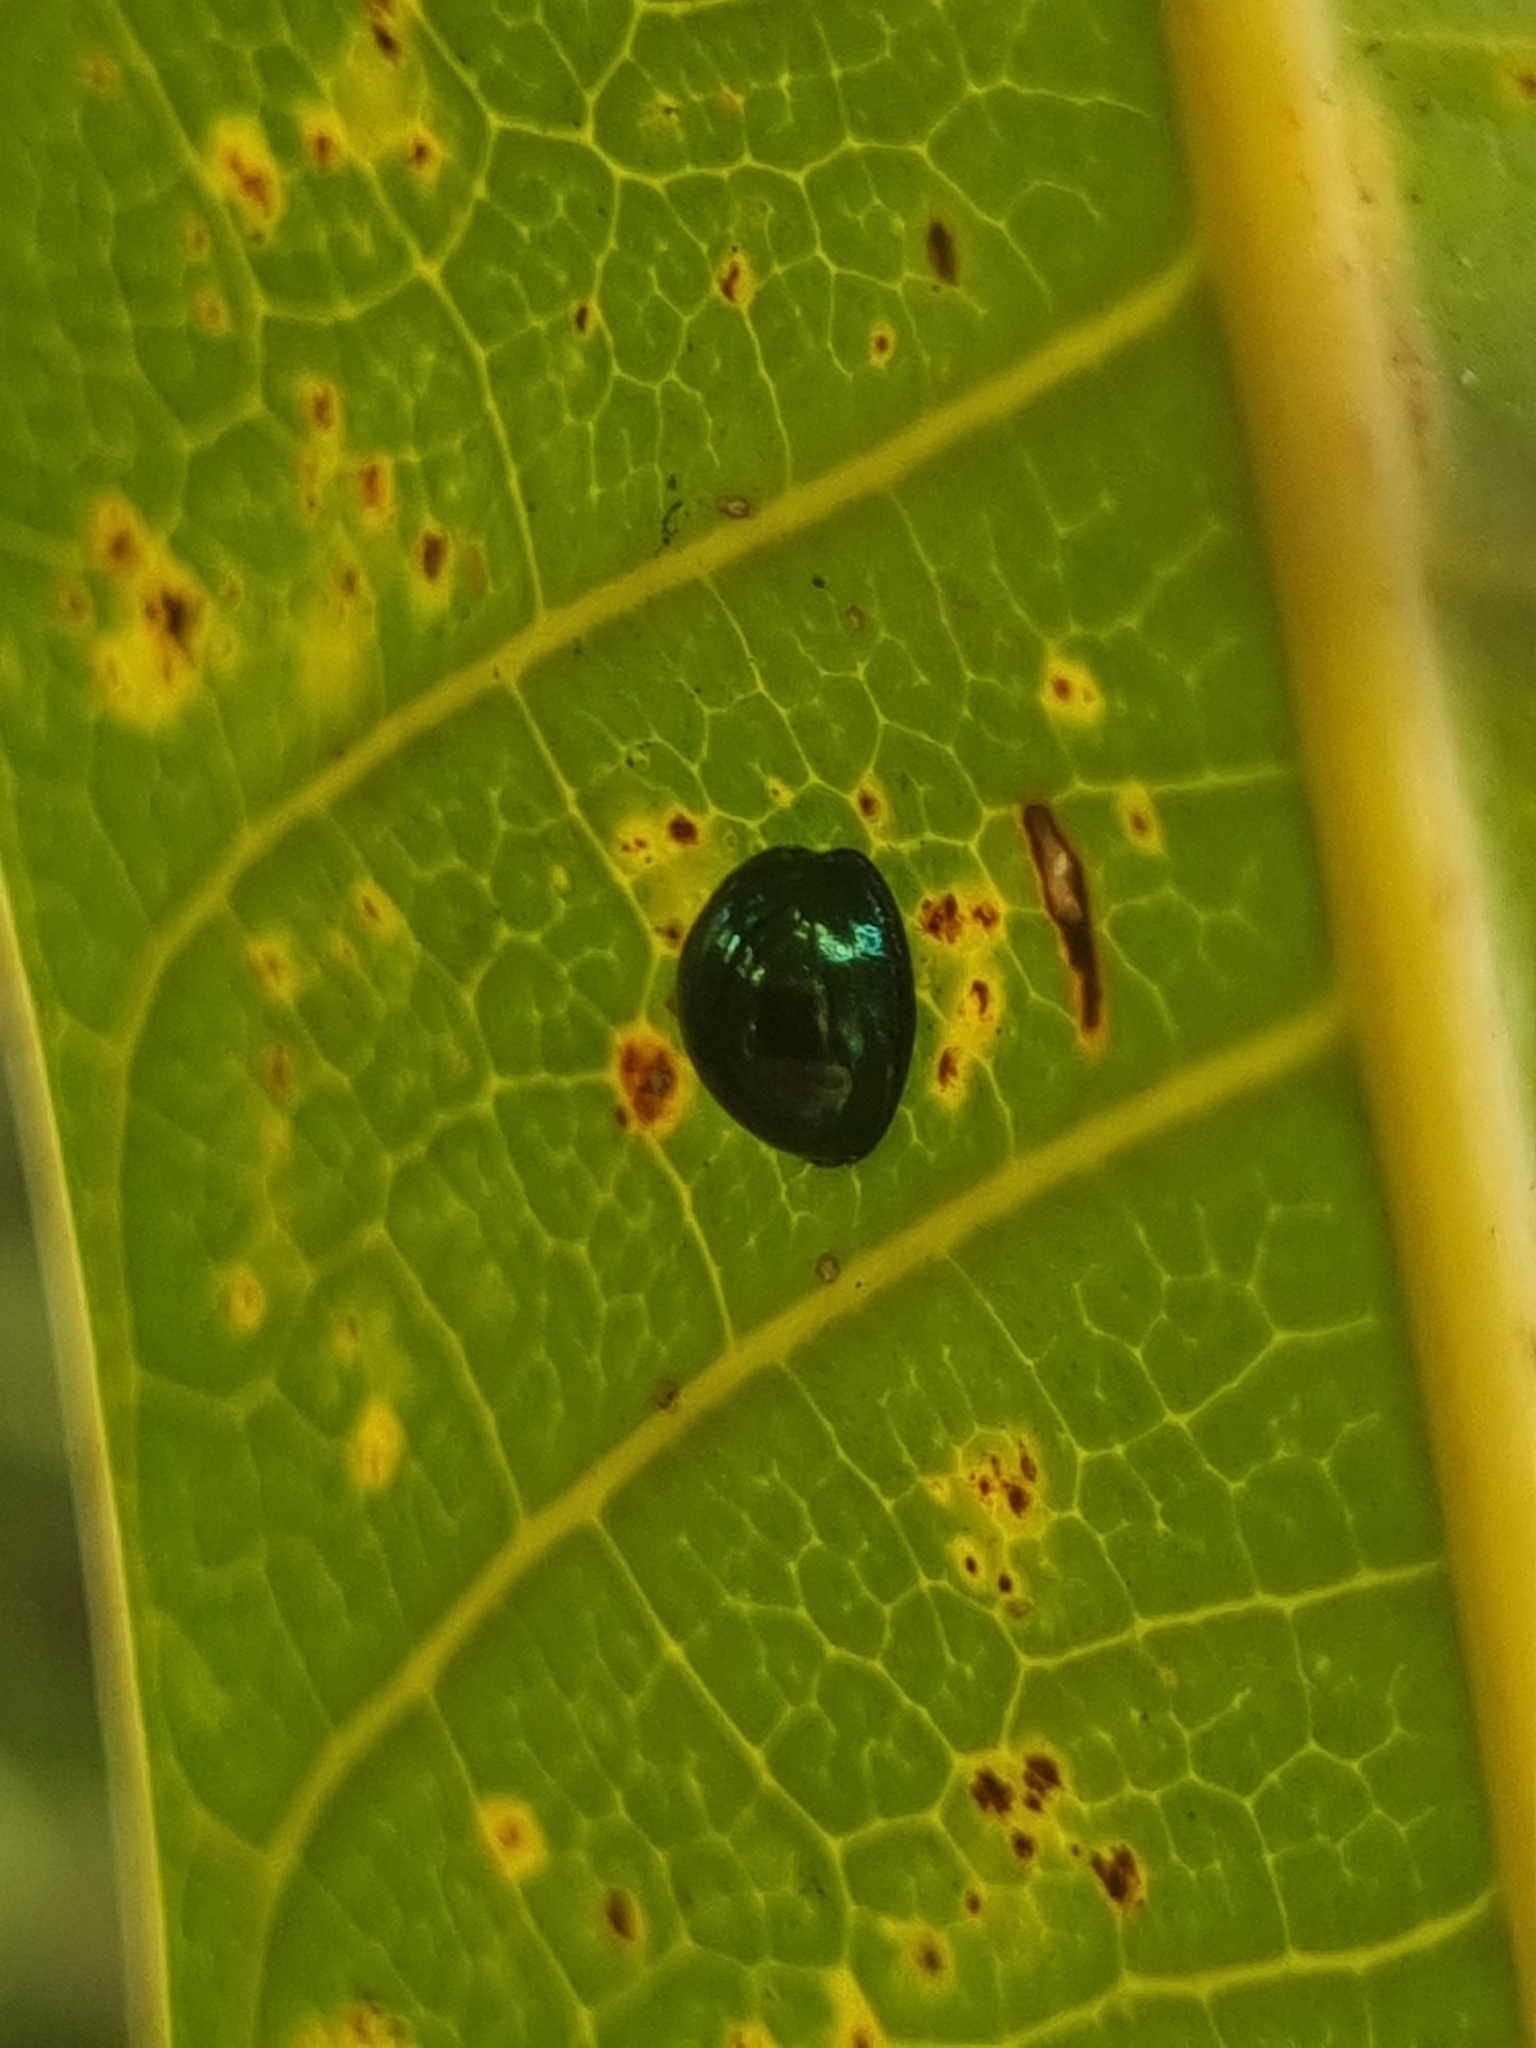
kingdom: Animalia
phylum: Arthropoda
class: Insecta
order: Coleoptera
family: Coccinellidae
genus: Halmus
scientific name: Halmus chalybeus
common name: Steel blue ladybird beetle
